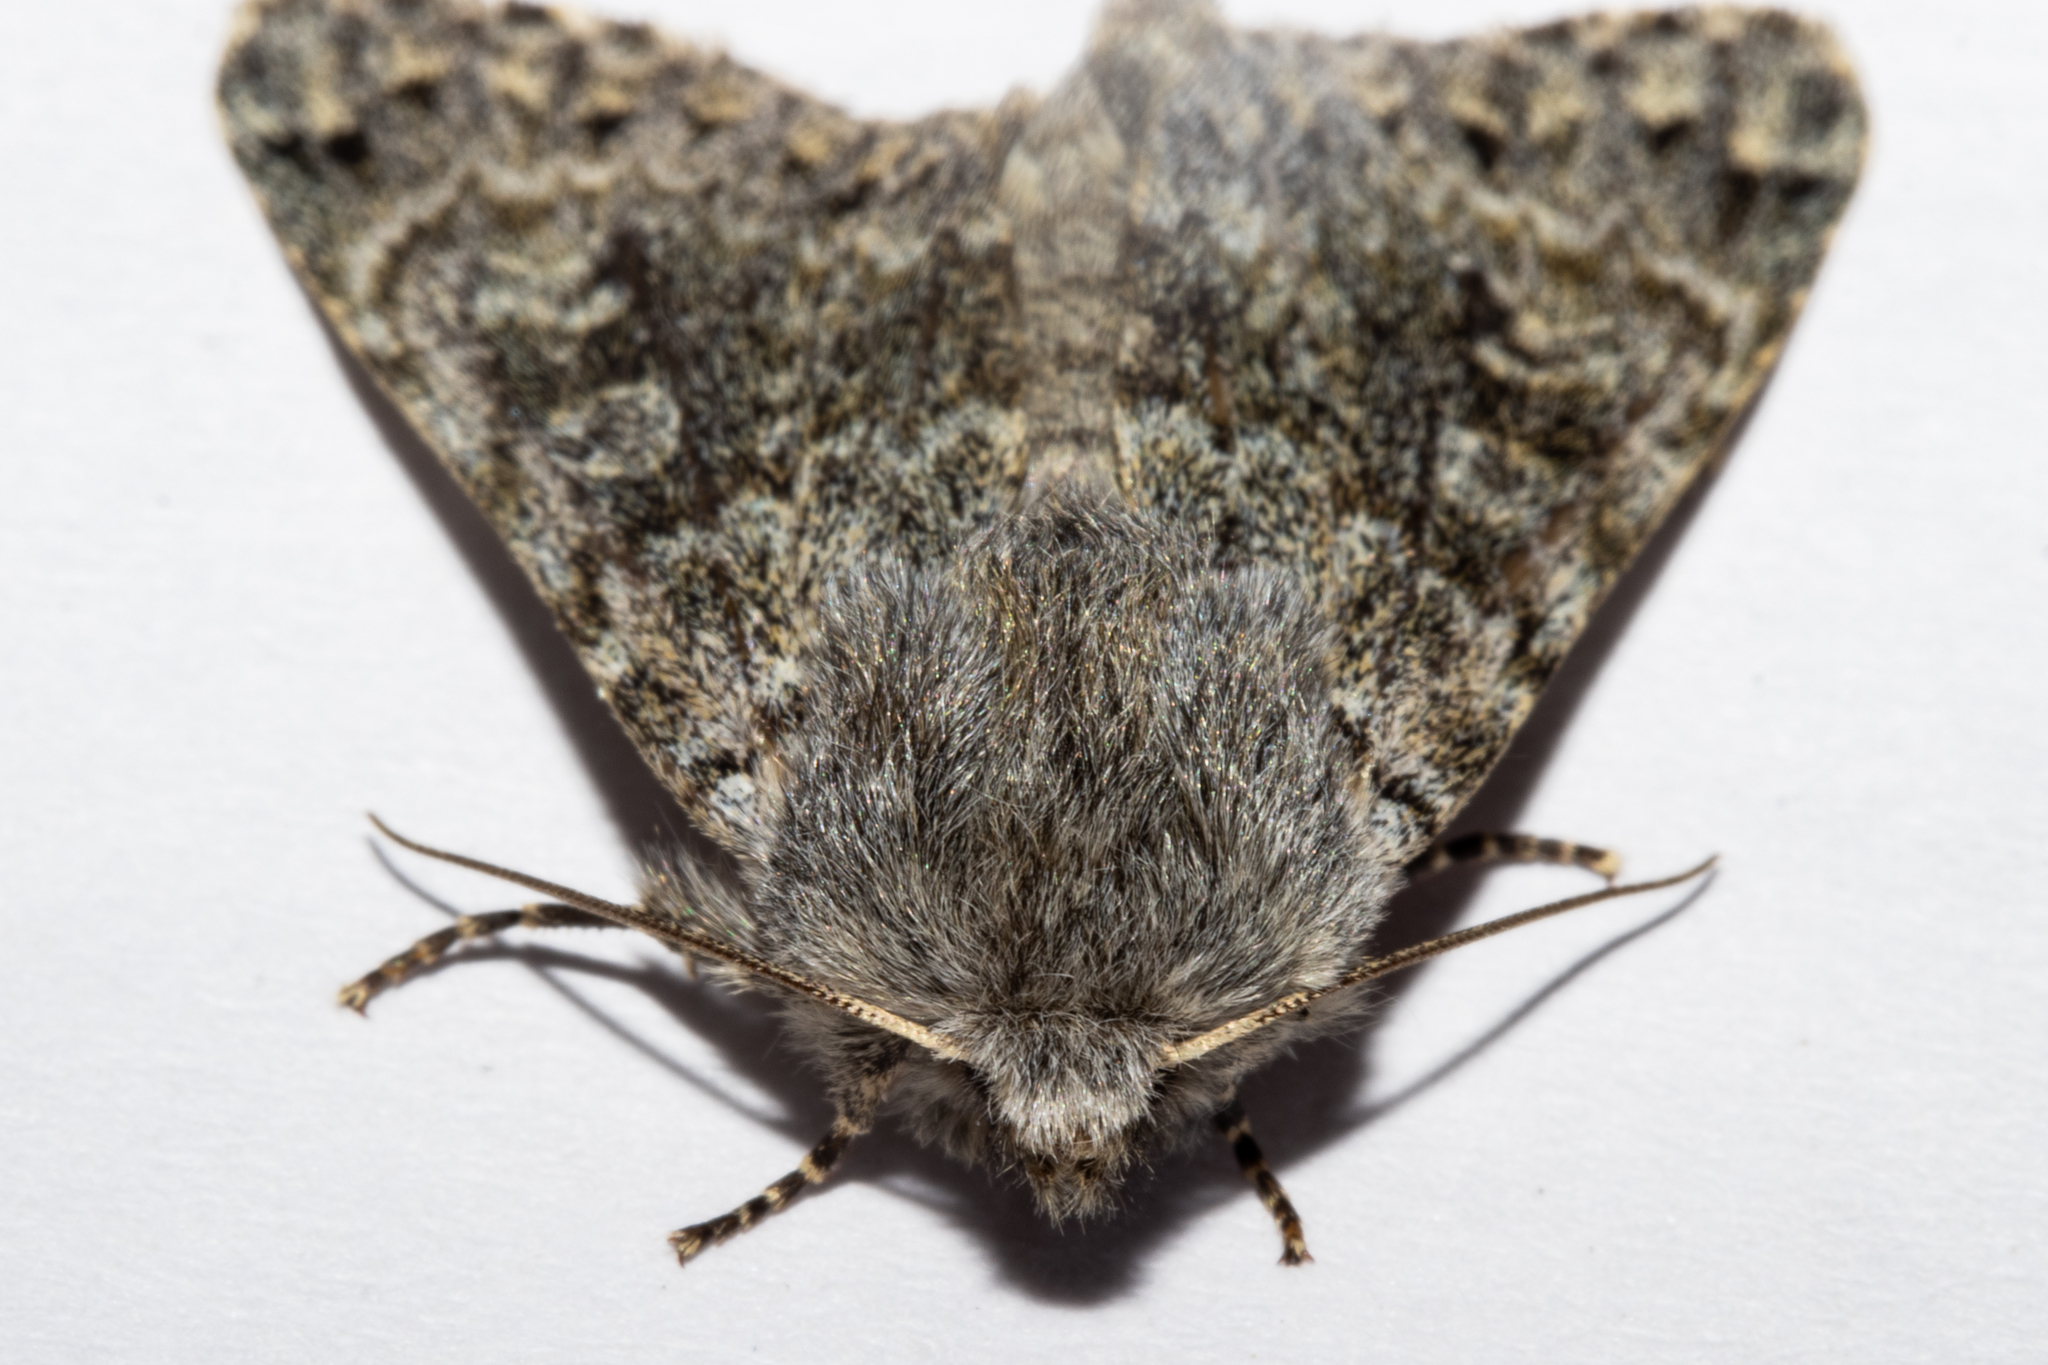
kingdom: Animalia
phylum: Arthropoda
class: Insecta
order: Lepidoptera
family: Noctuidae
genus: Ichneutica
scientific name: Ichneutica cana
